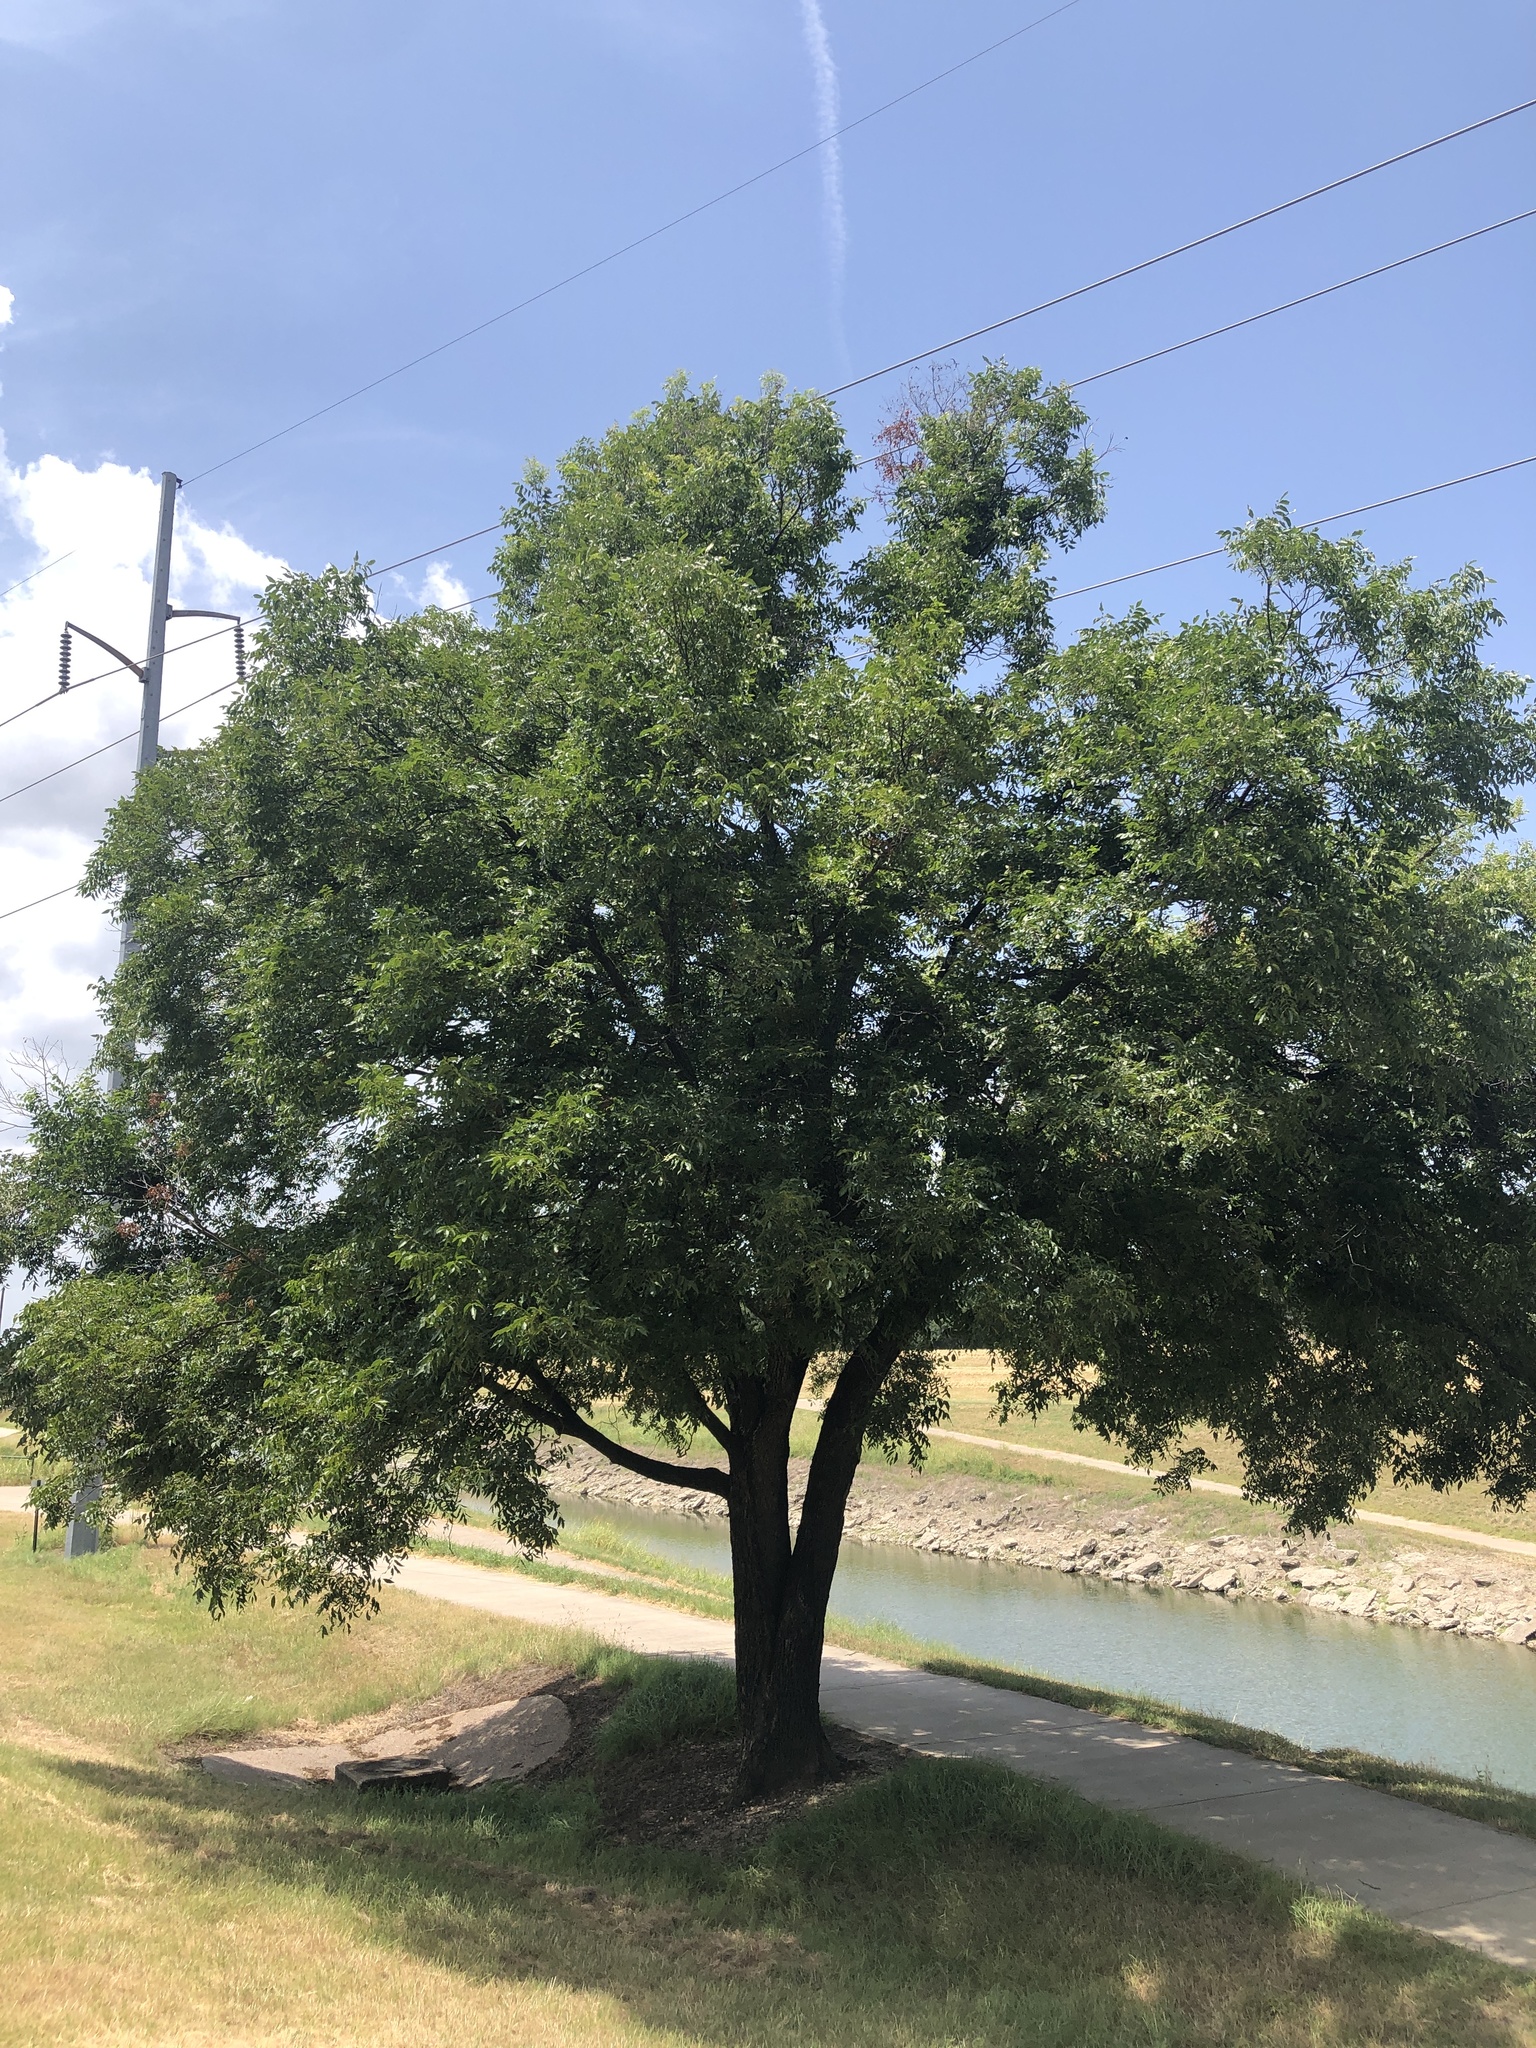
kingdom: Plantae
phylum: Tracheophyta
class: Magnoliopsida
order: Fagales
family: Juglandaceae
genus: Carya
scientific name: Carya illinoinensis
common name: Pecan
